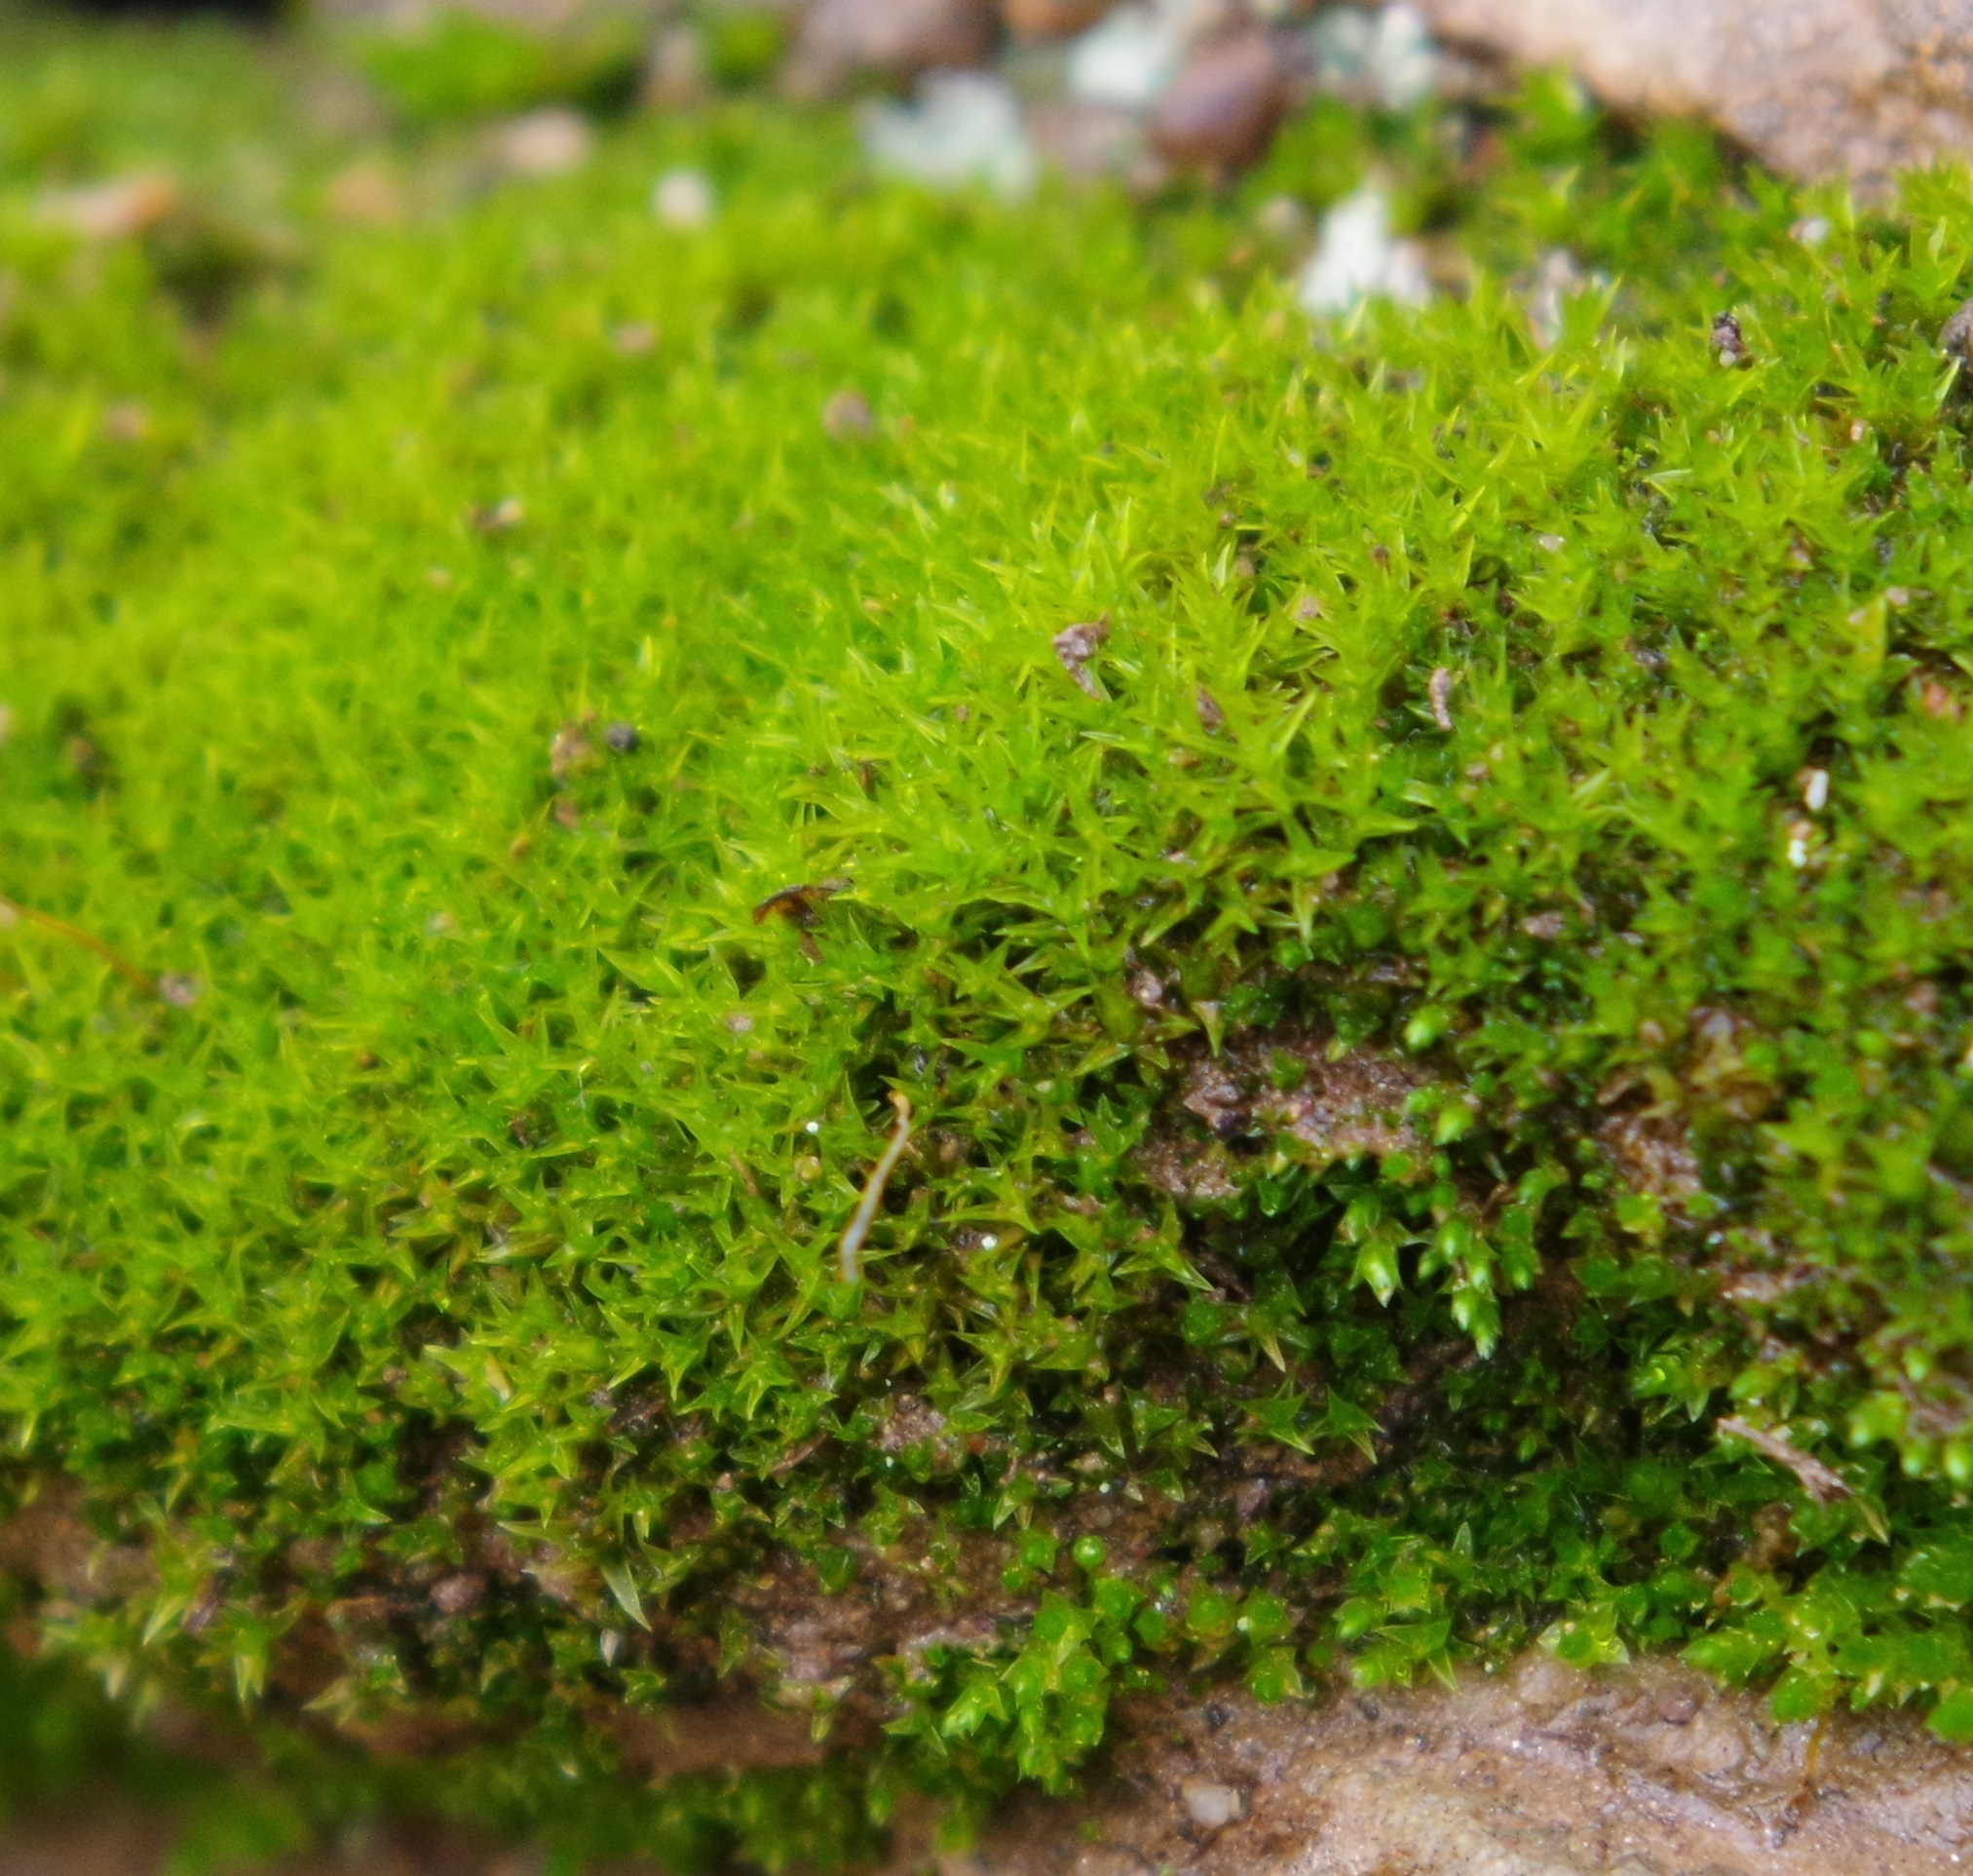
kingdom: Plantae
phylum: Bryophyta
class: Bryopsida
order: Dicranales
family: Ditrichaceae
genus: Ceratodon
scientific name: Ceratodon purpureus
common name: Redshank
